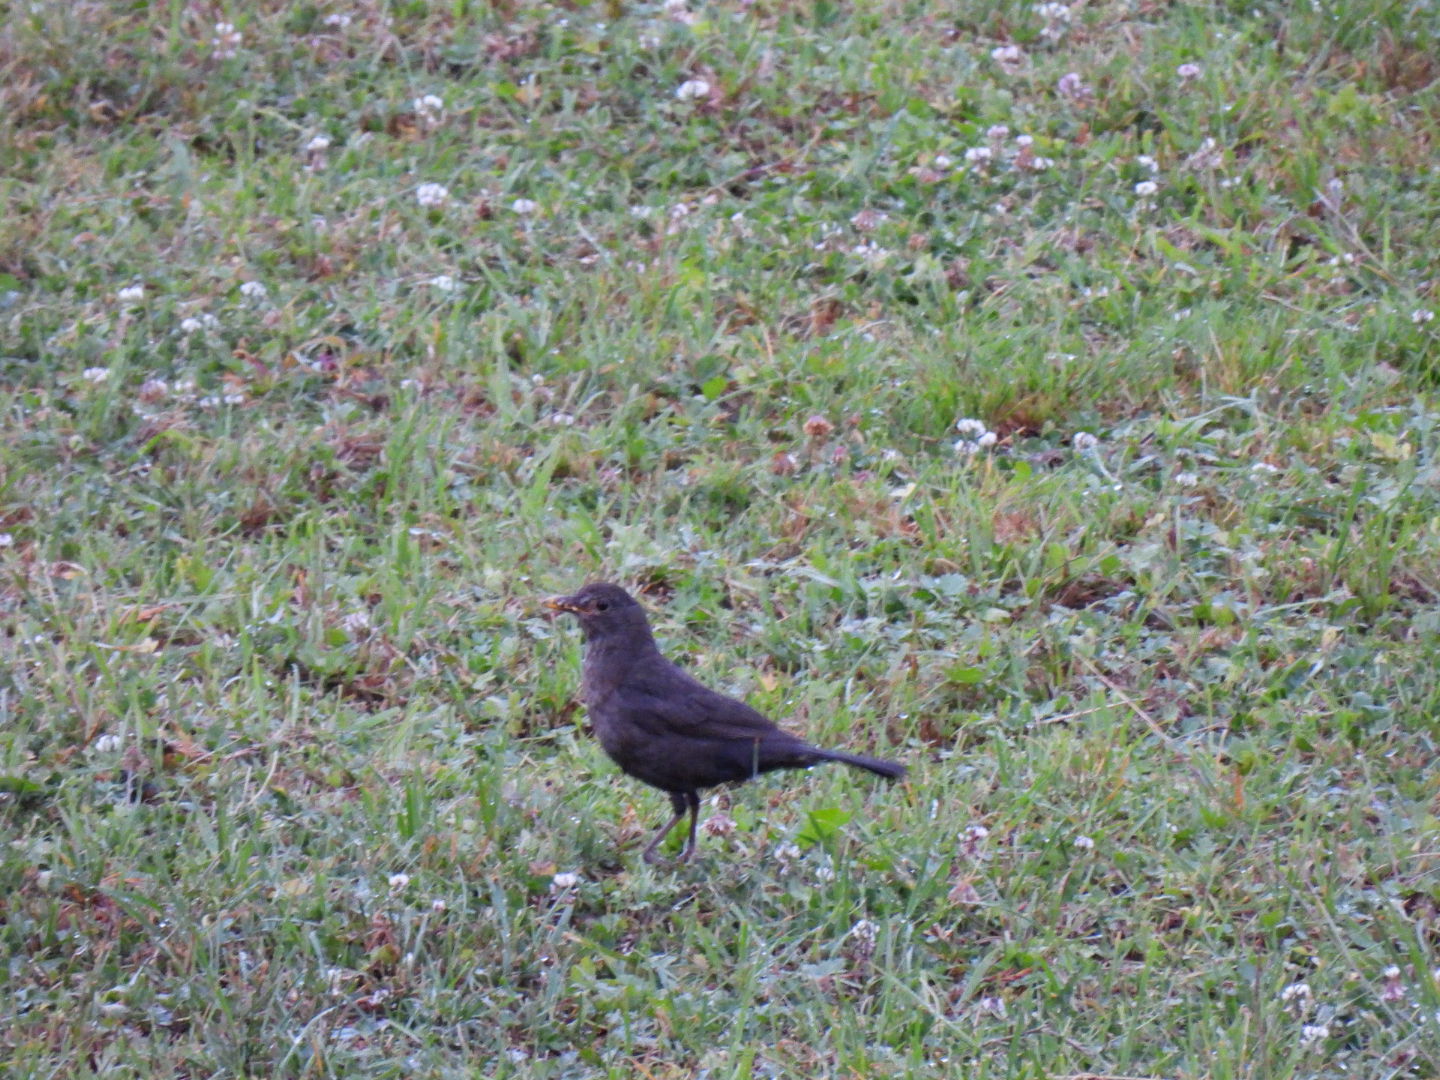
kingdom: Animalia
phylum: Chordata
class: Aves
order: Passeriformes
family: Turdidae
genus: Turdus
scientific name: Turdus merula
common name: Common blackbird
